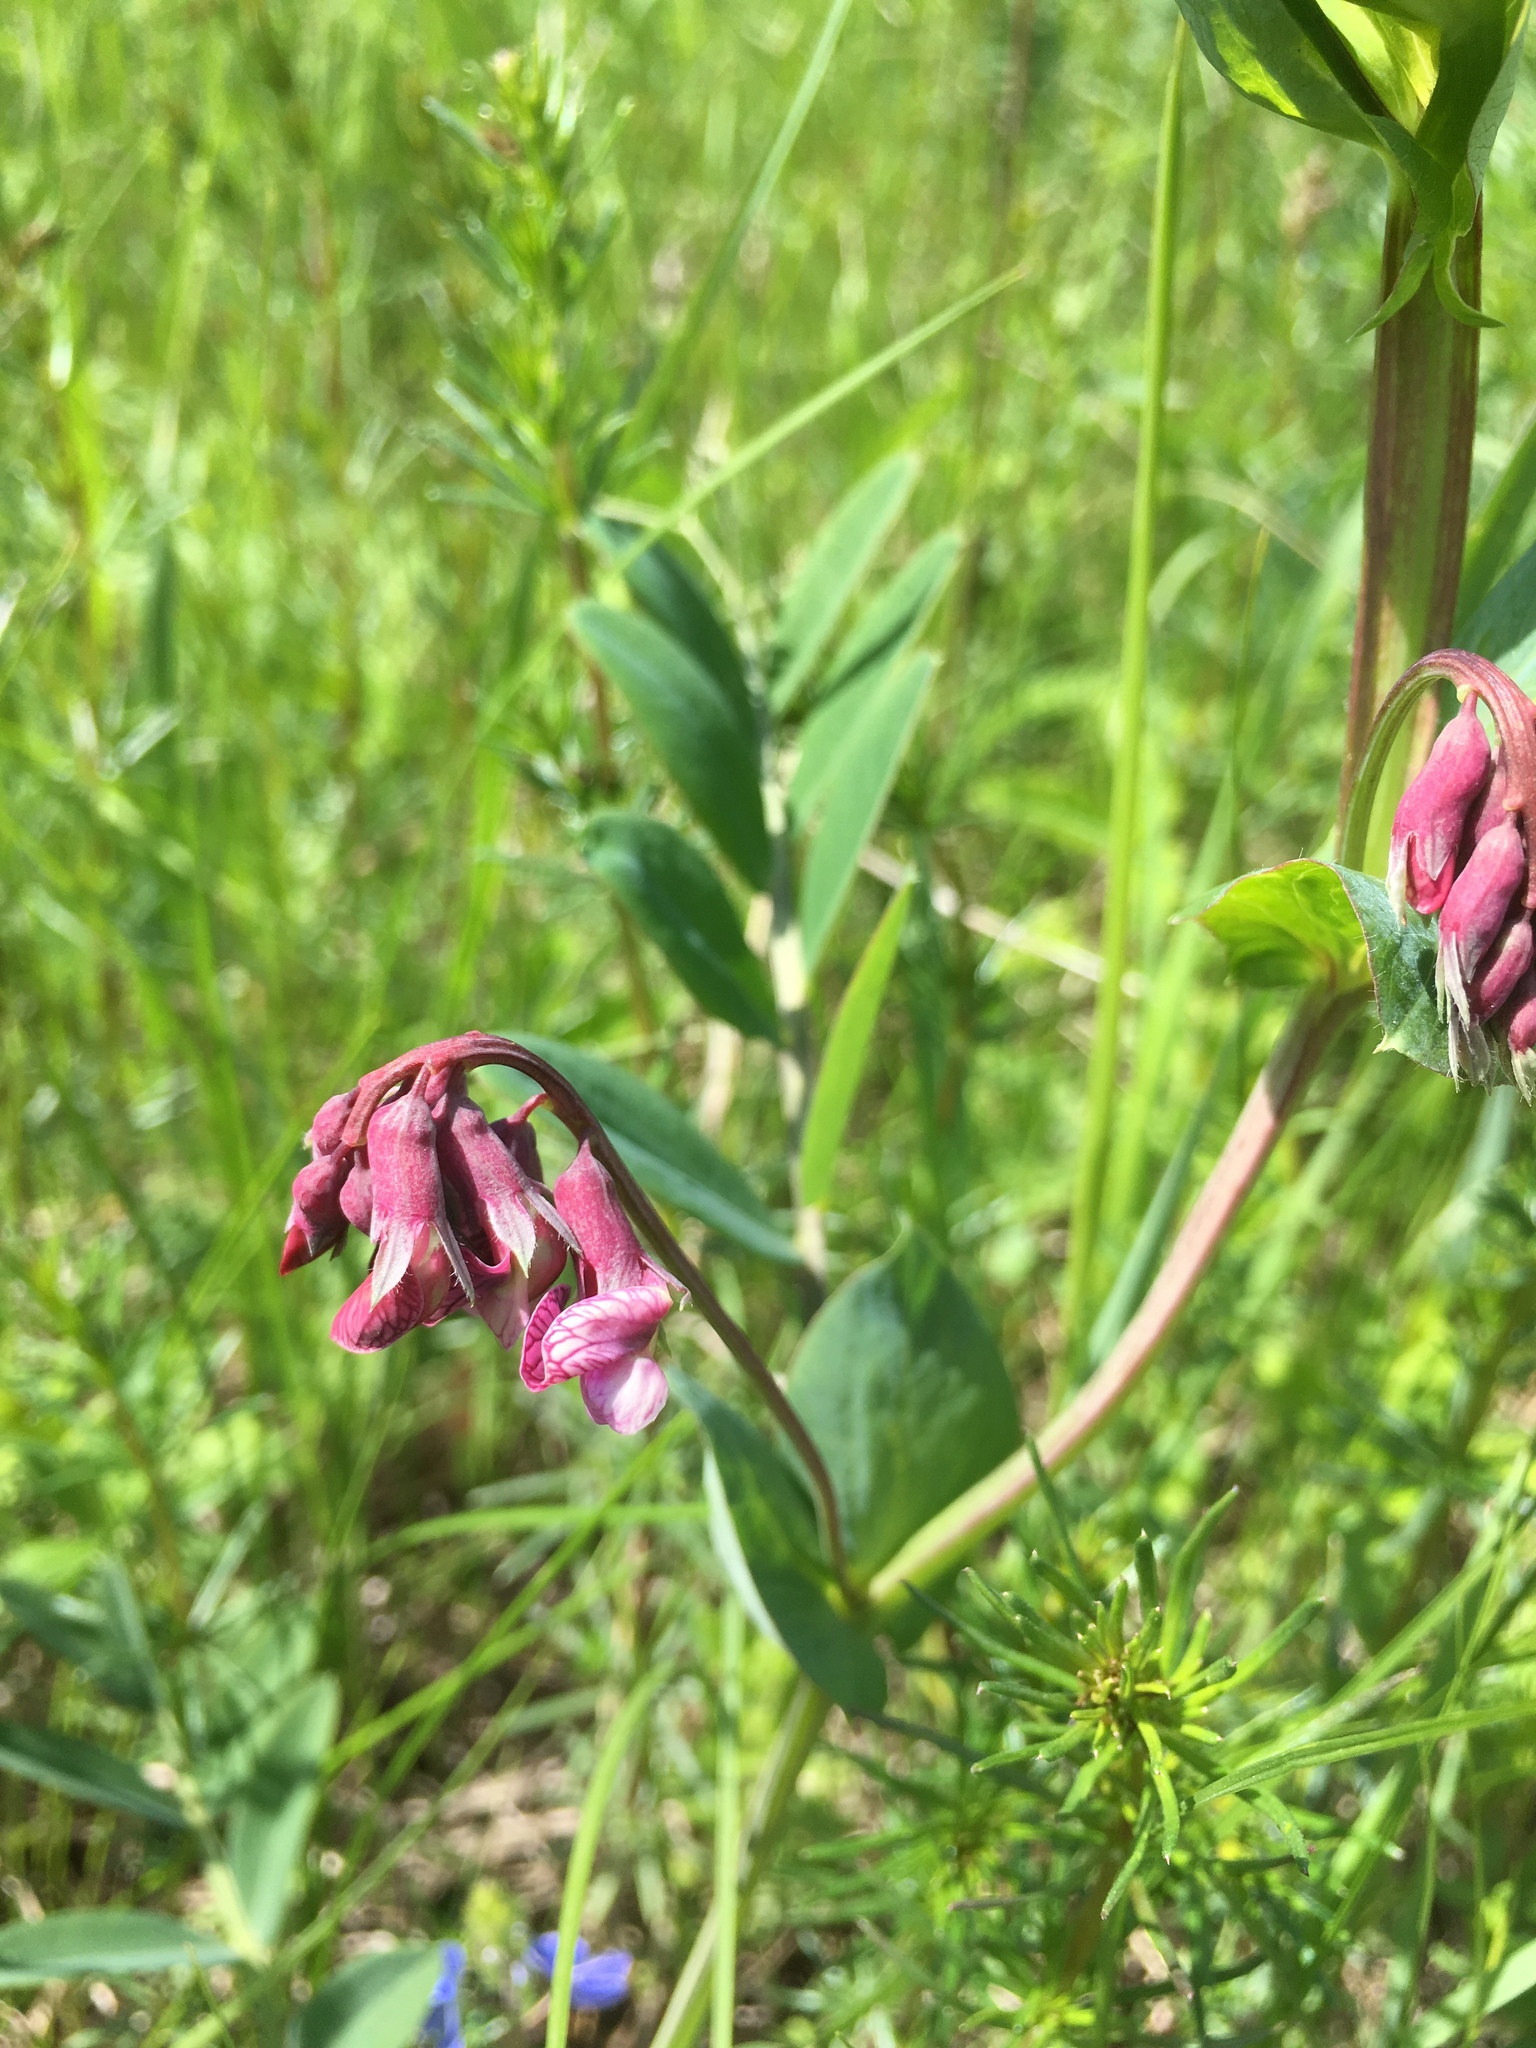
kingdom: Plantae
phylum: Tracheophyta
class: Magnoliopsida
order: Fabales
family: Fabaceae
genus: Lathyrus
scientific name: Lathyrus pisiformis
